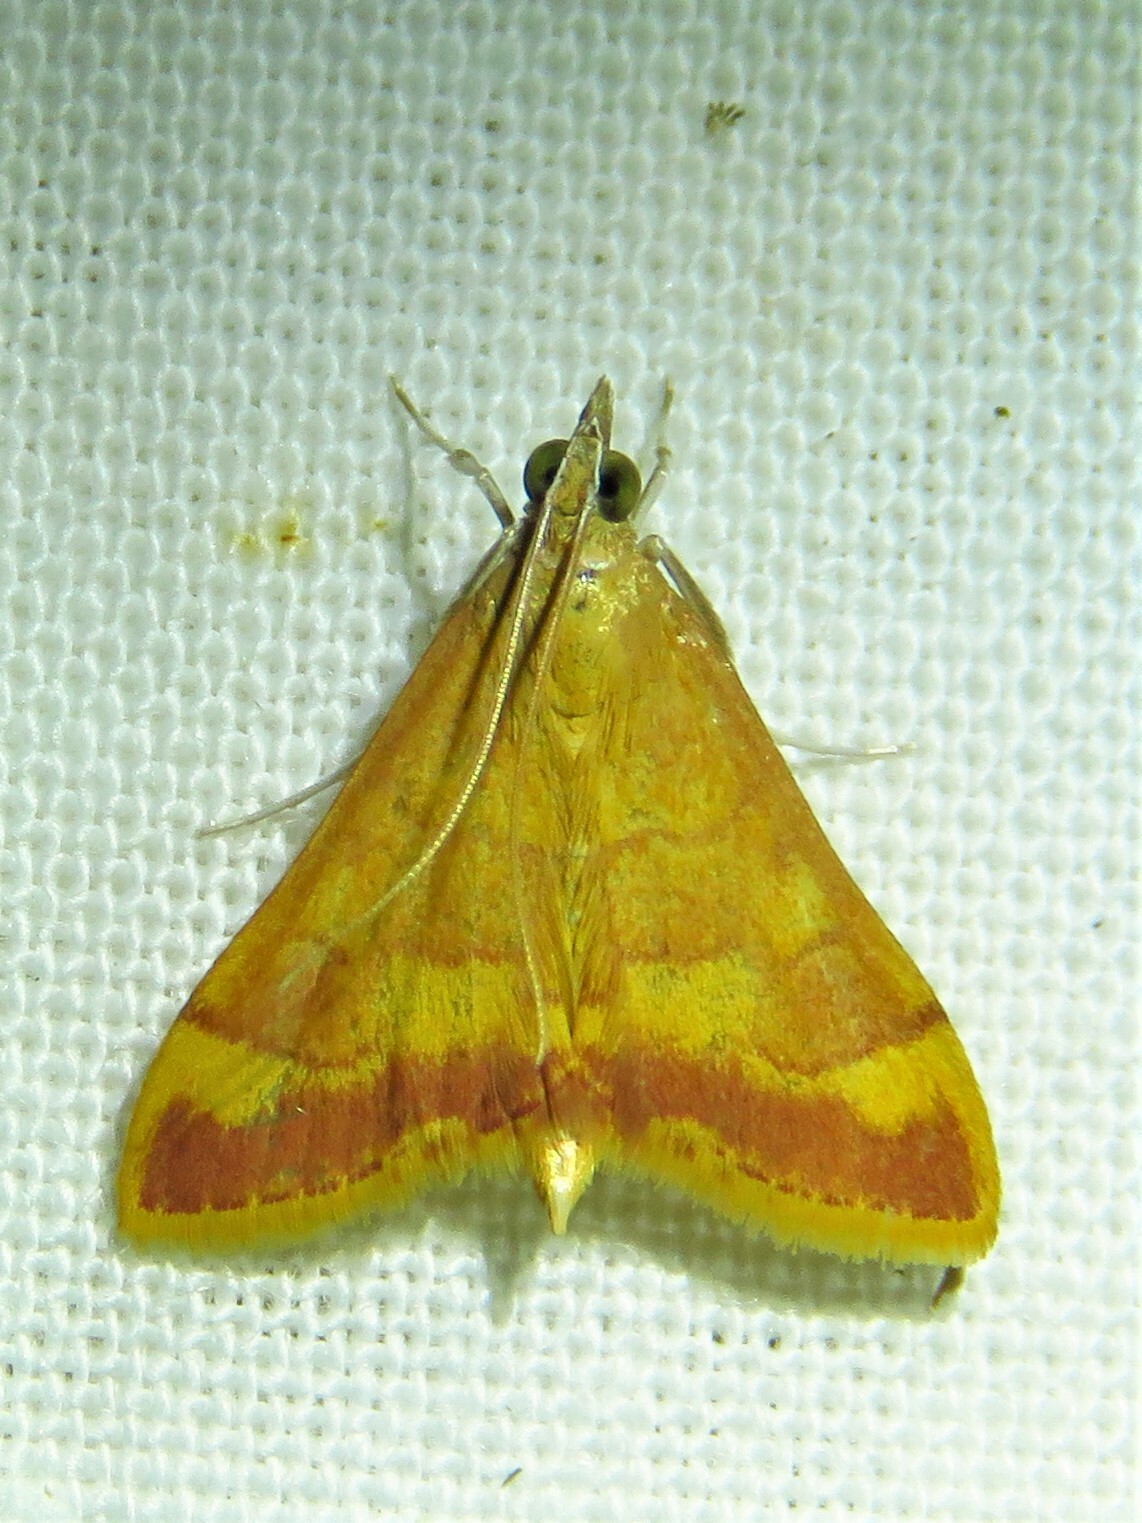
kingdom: Animalia
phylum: Arthropoda
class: Insecta
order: Lepidoptera
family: Crambidae
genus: Pyrausta
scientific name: Pyrausta pseudonythesalis
